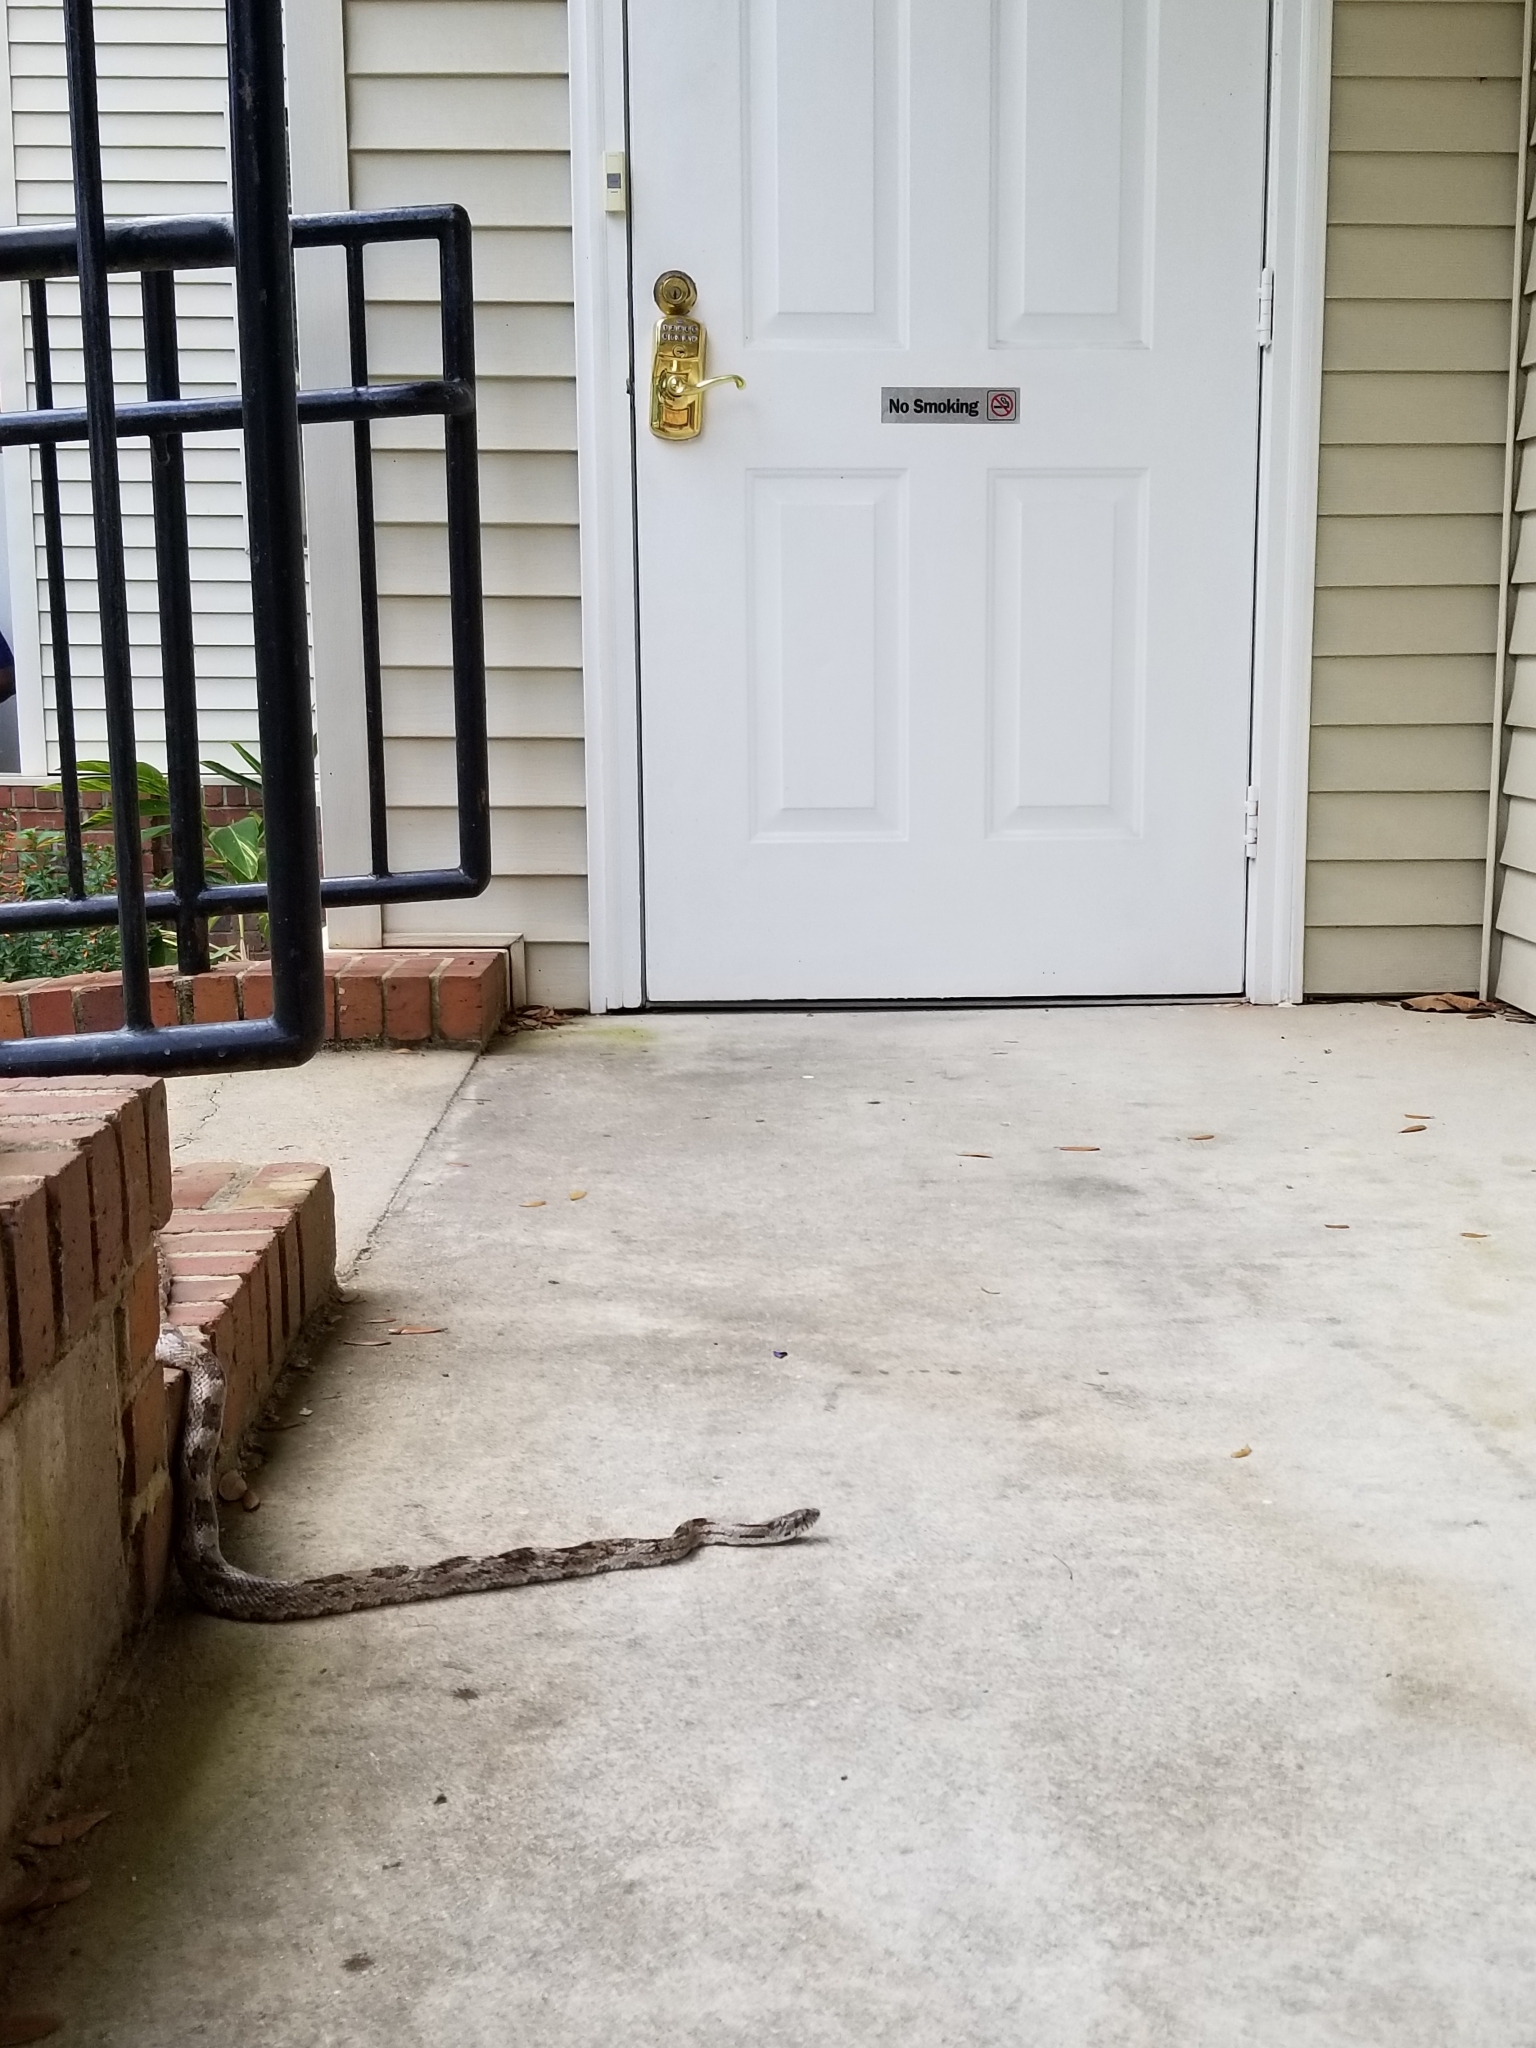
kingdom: Animalia
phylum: Chordata
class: Squamata
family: Colubridae
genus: Pantherophis
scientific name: Pantherophis spiloides
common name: Gray rat snake
